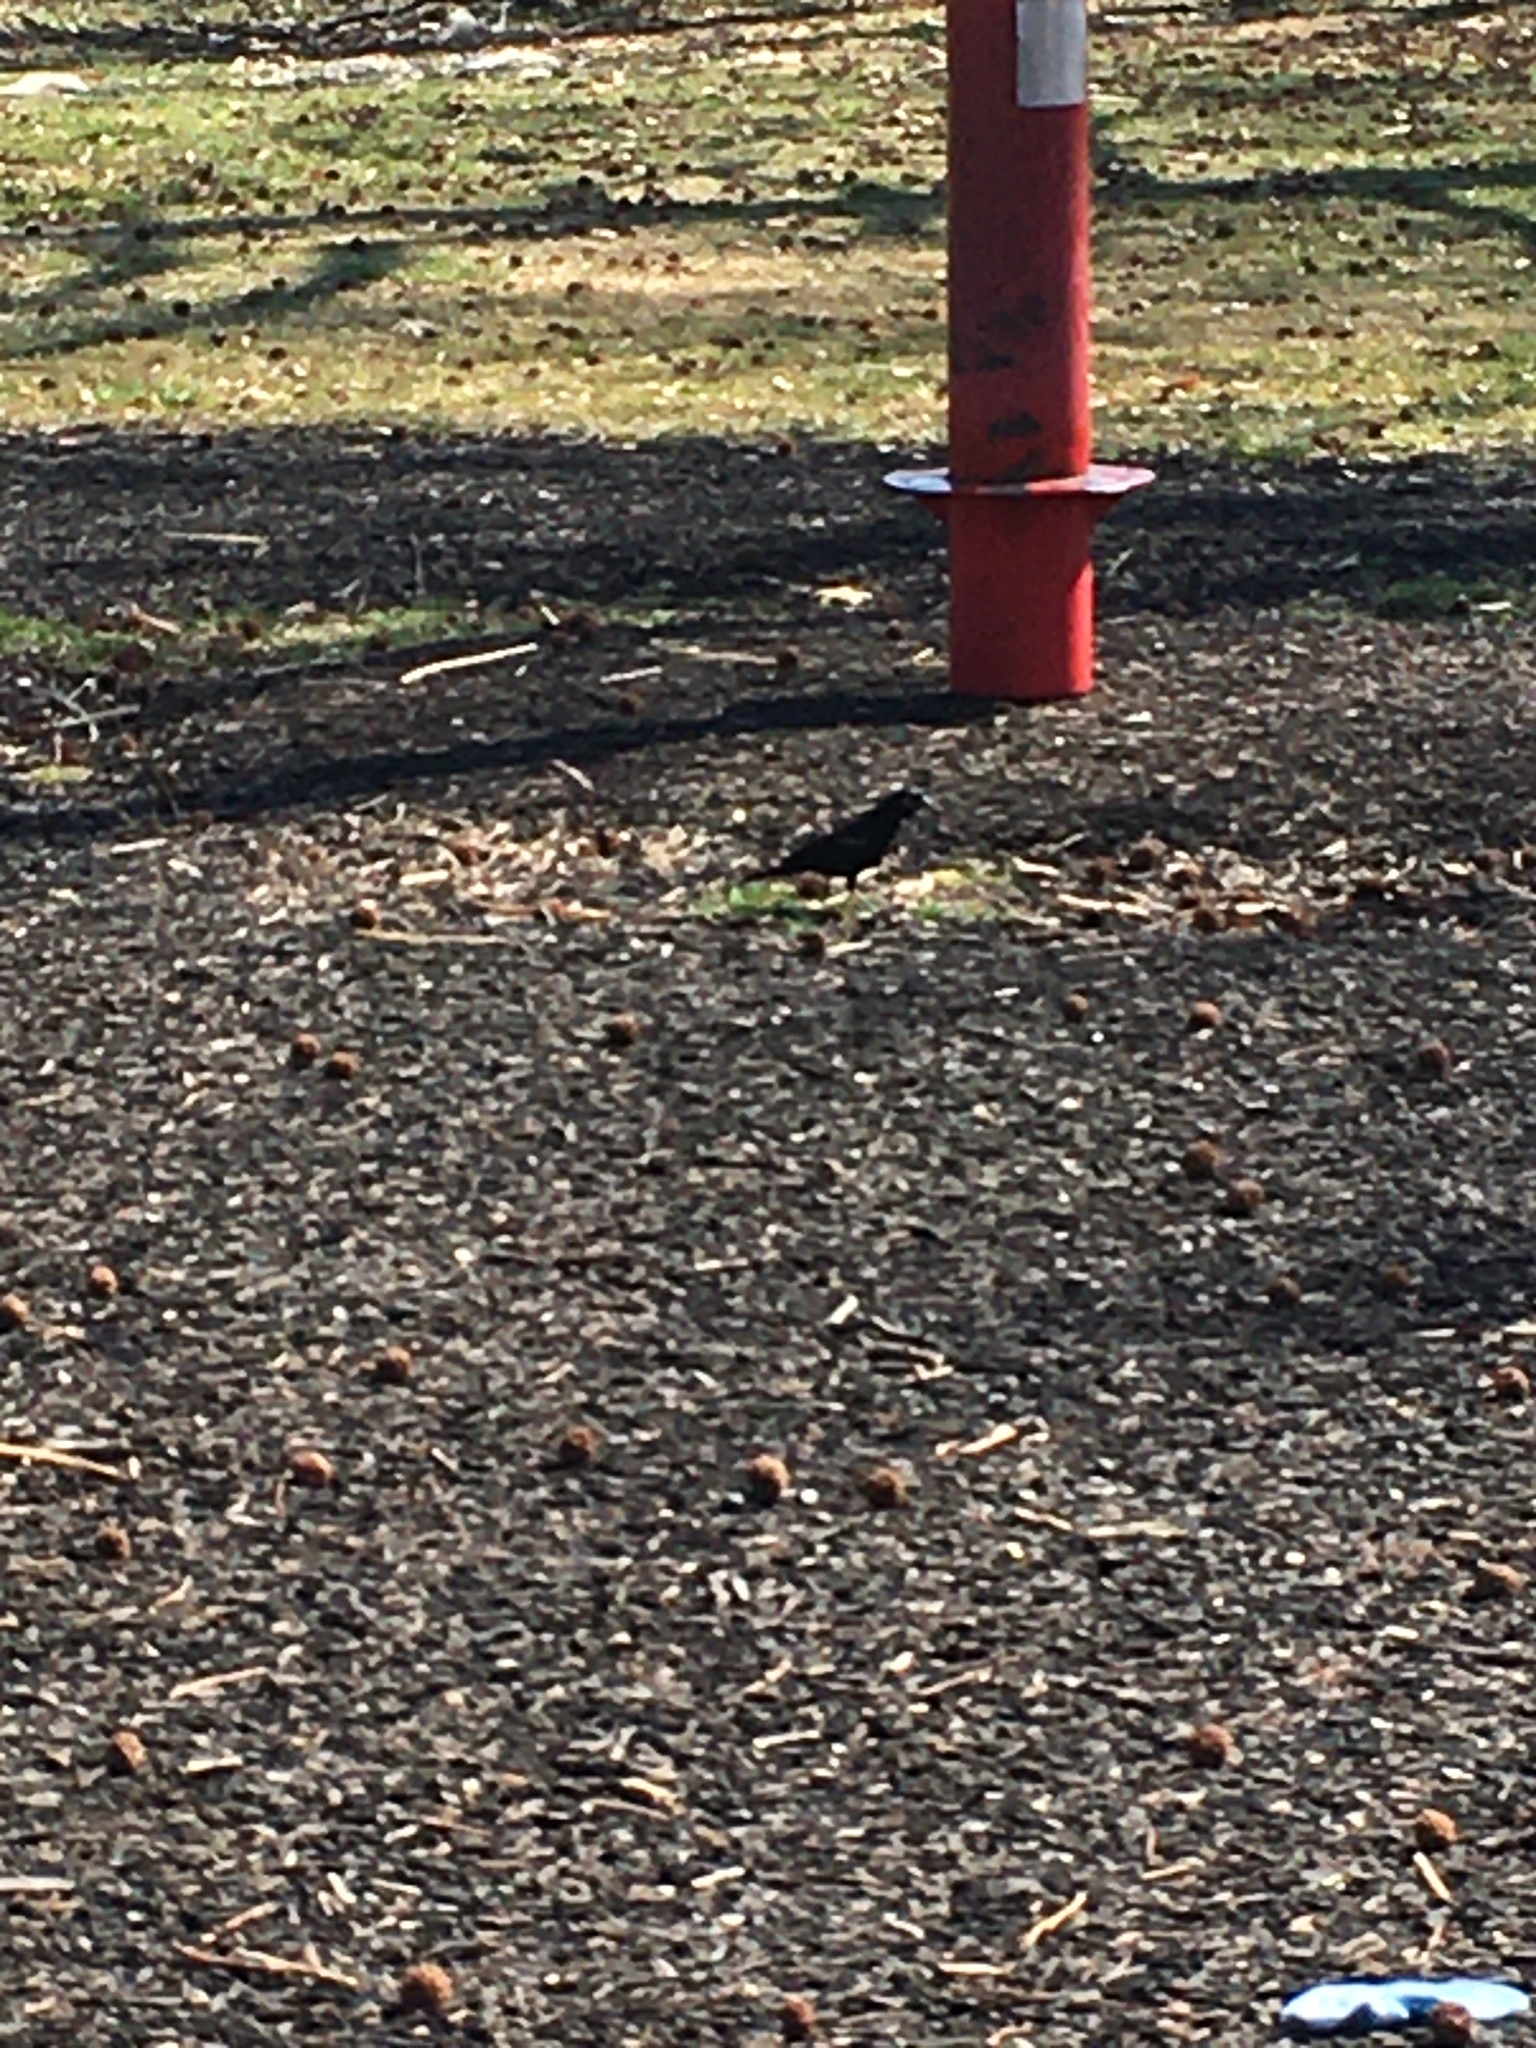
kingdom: Animalia
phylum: Chordata
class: Aves
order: Passeriformes
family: Icteridae
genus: Agelaius
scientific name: Agelaius phoeniceus
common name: Red-winged blackbird
